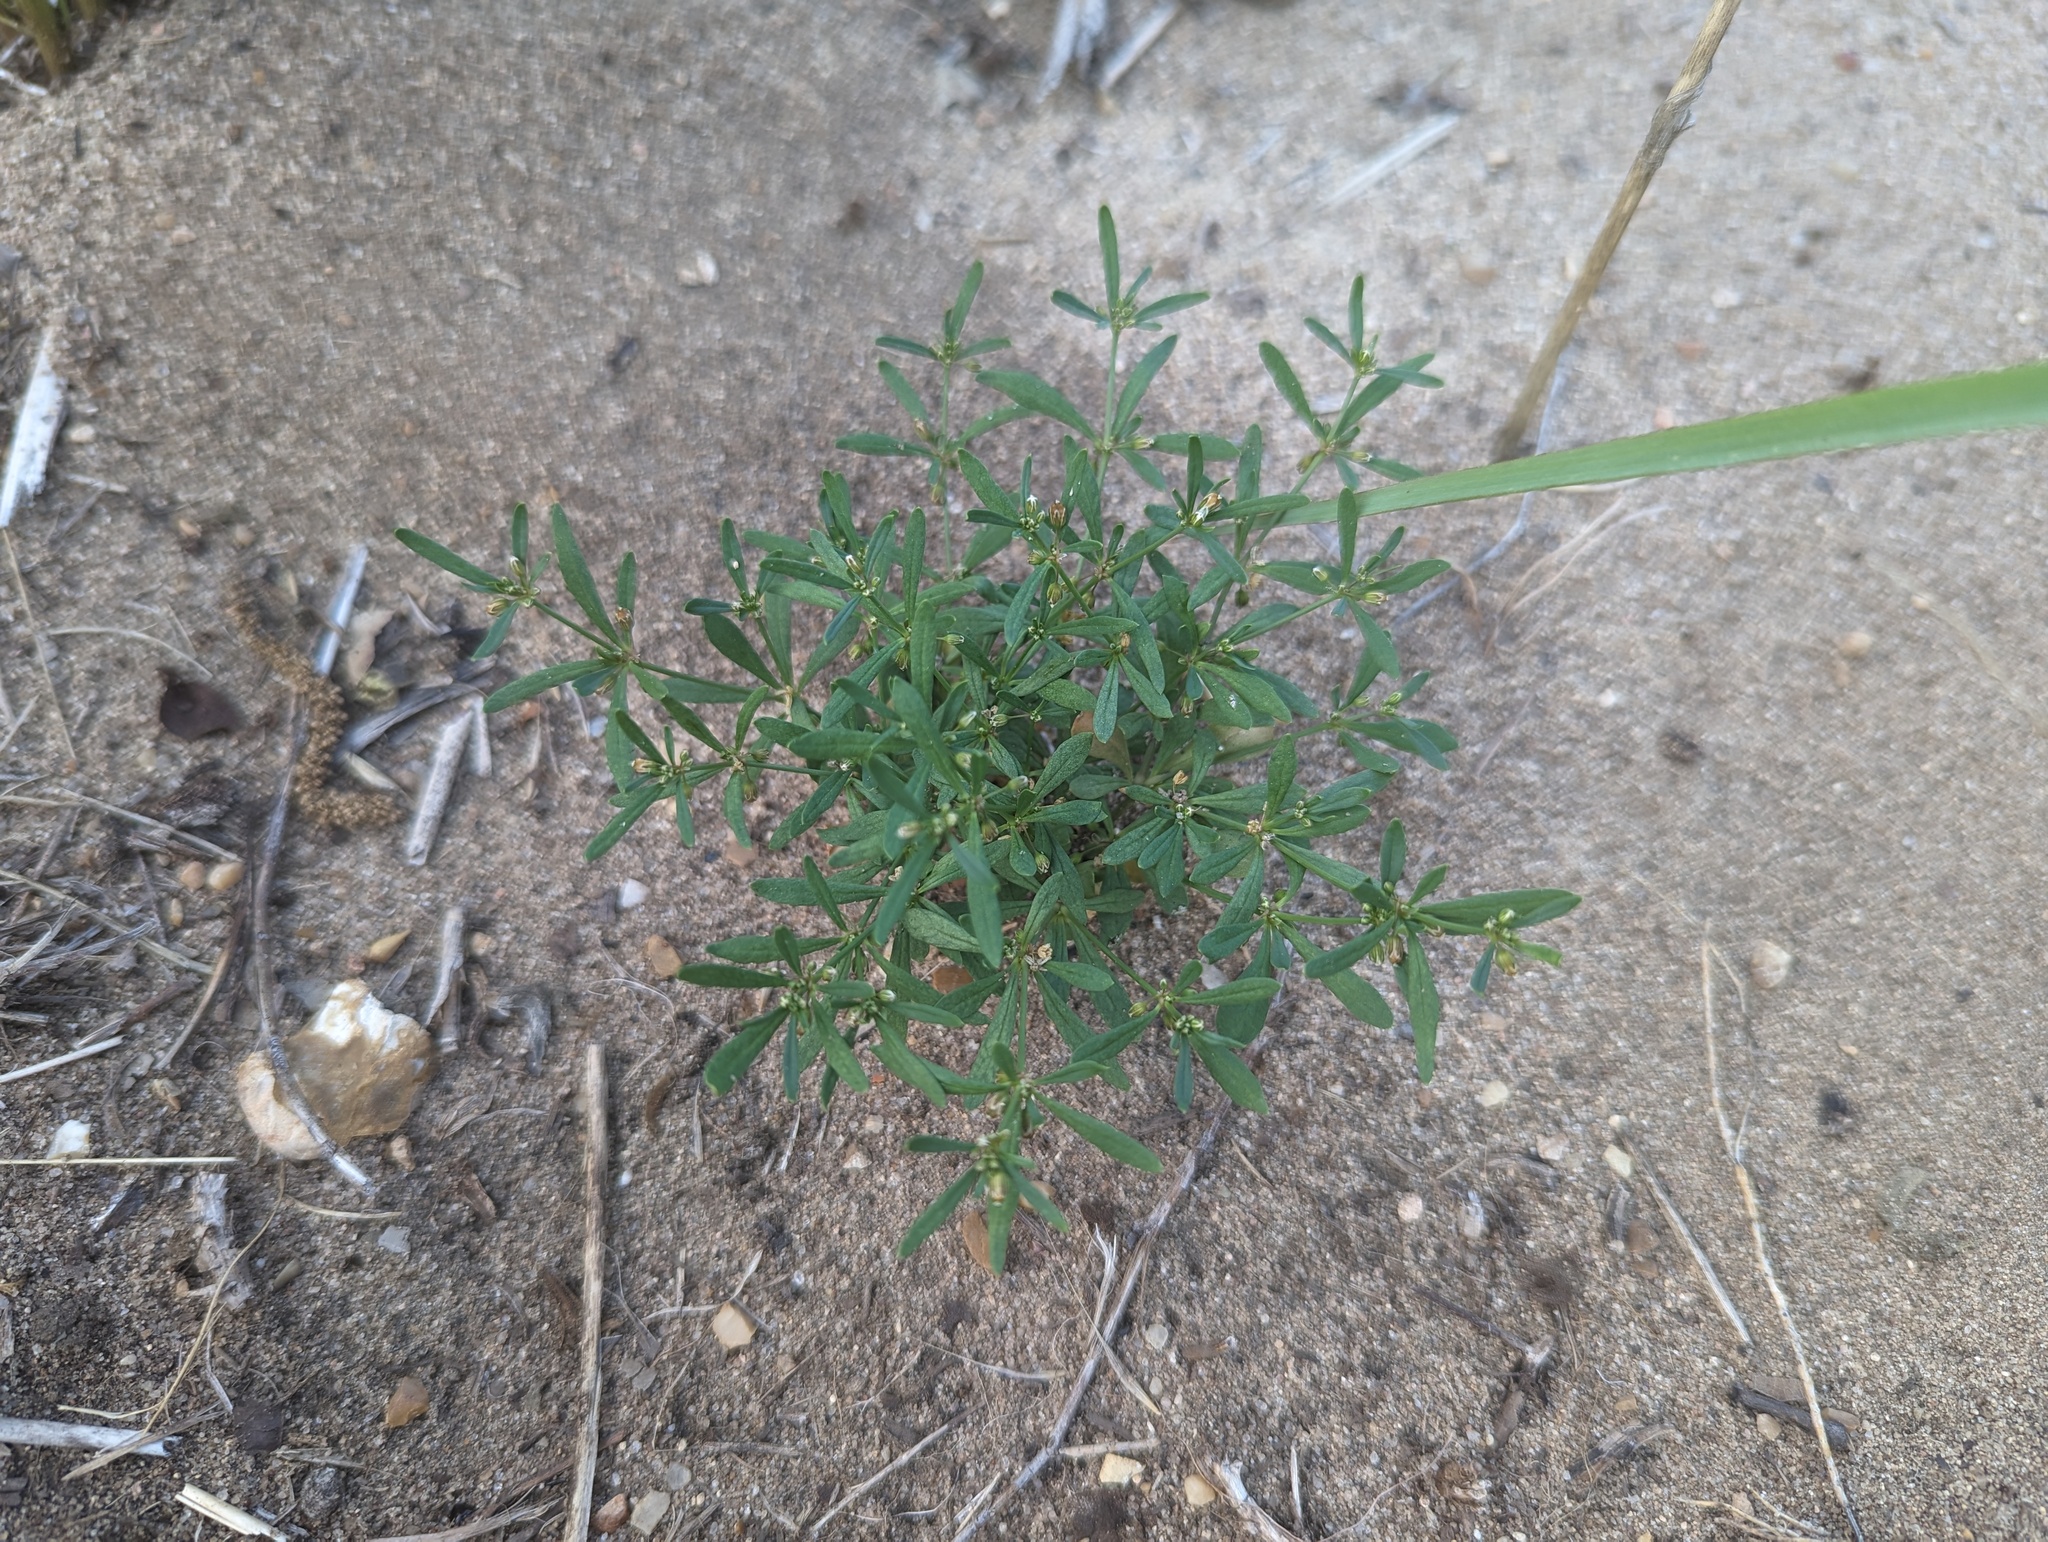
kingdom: Plantae
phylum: Tracheophyta
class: Magnoliopsida
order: Caryophyllales
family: Molluginaceae
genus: Mollugo
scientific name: Mollugo verticillata
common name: Green carpetweed
